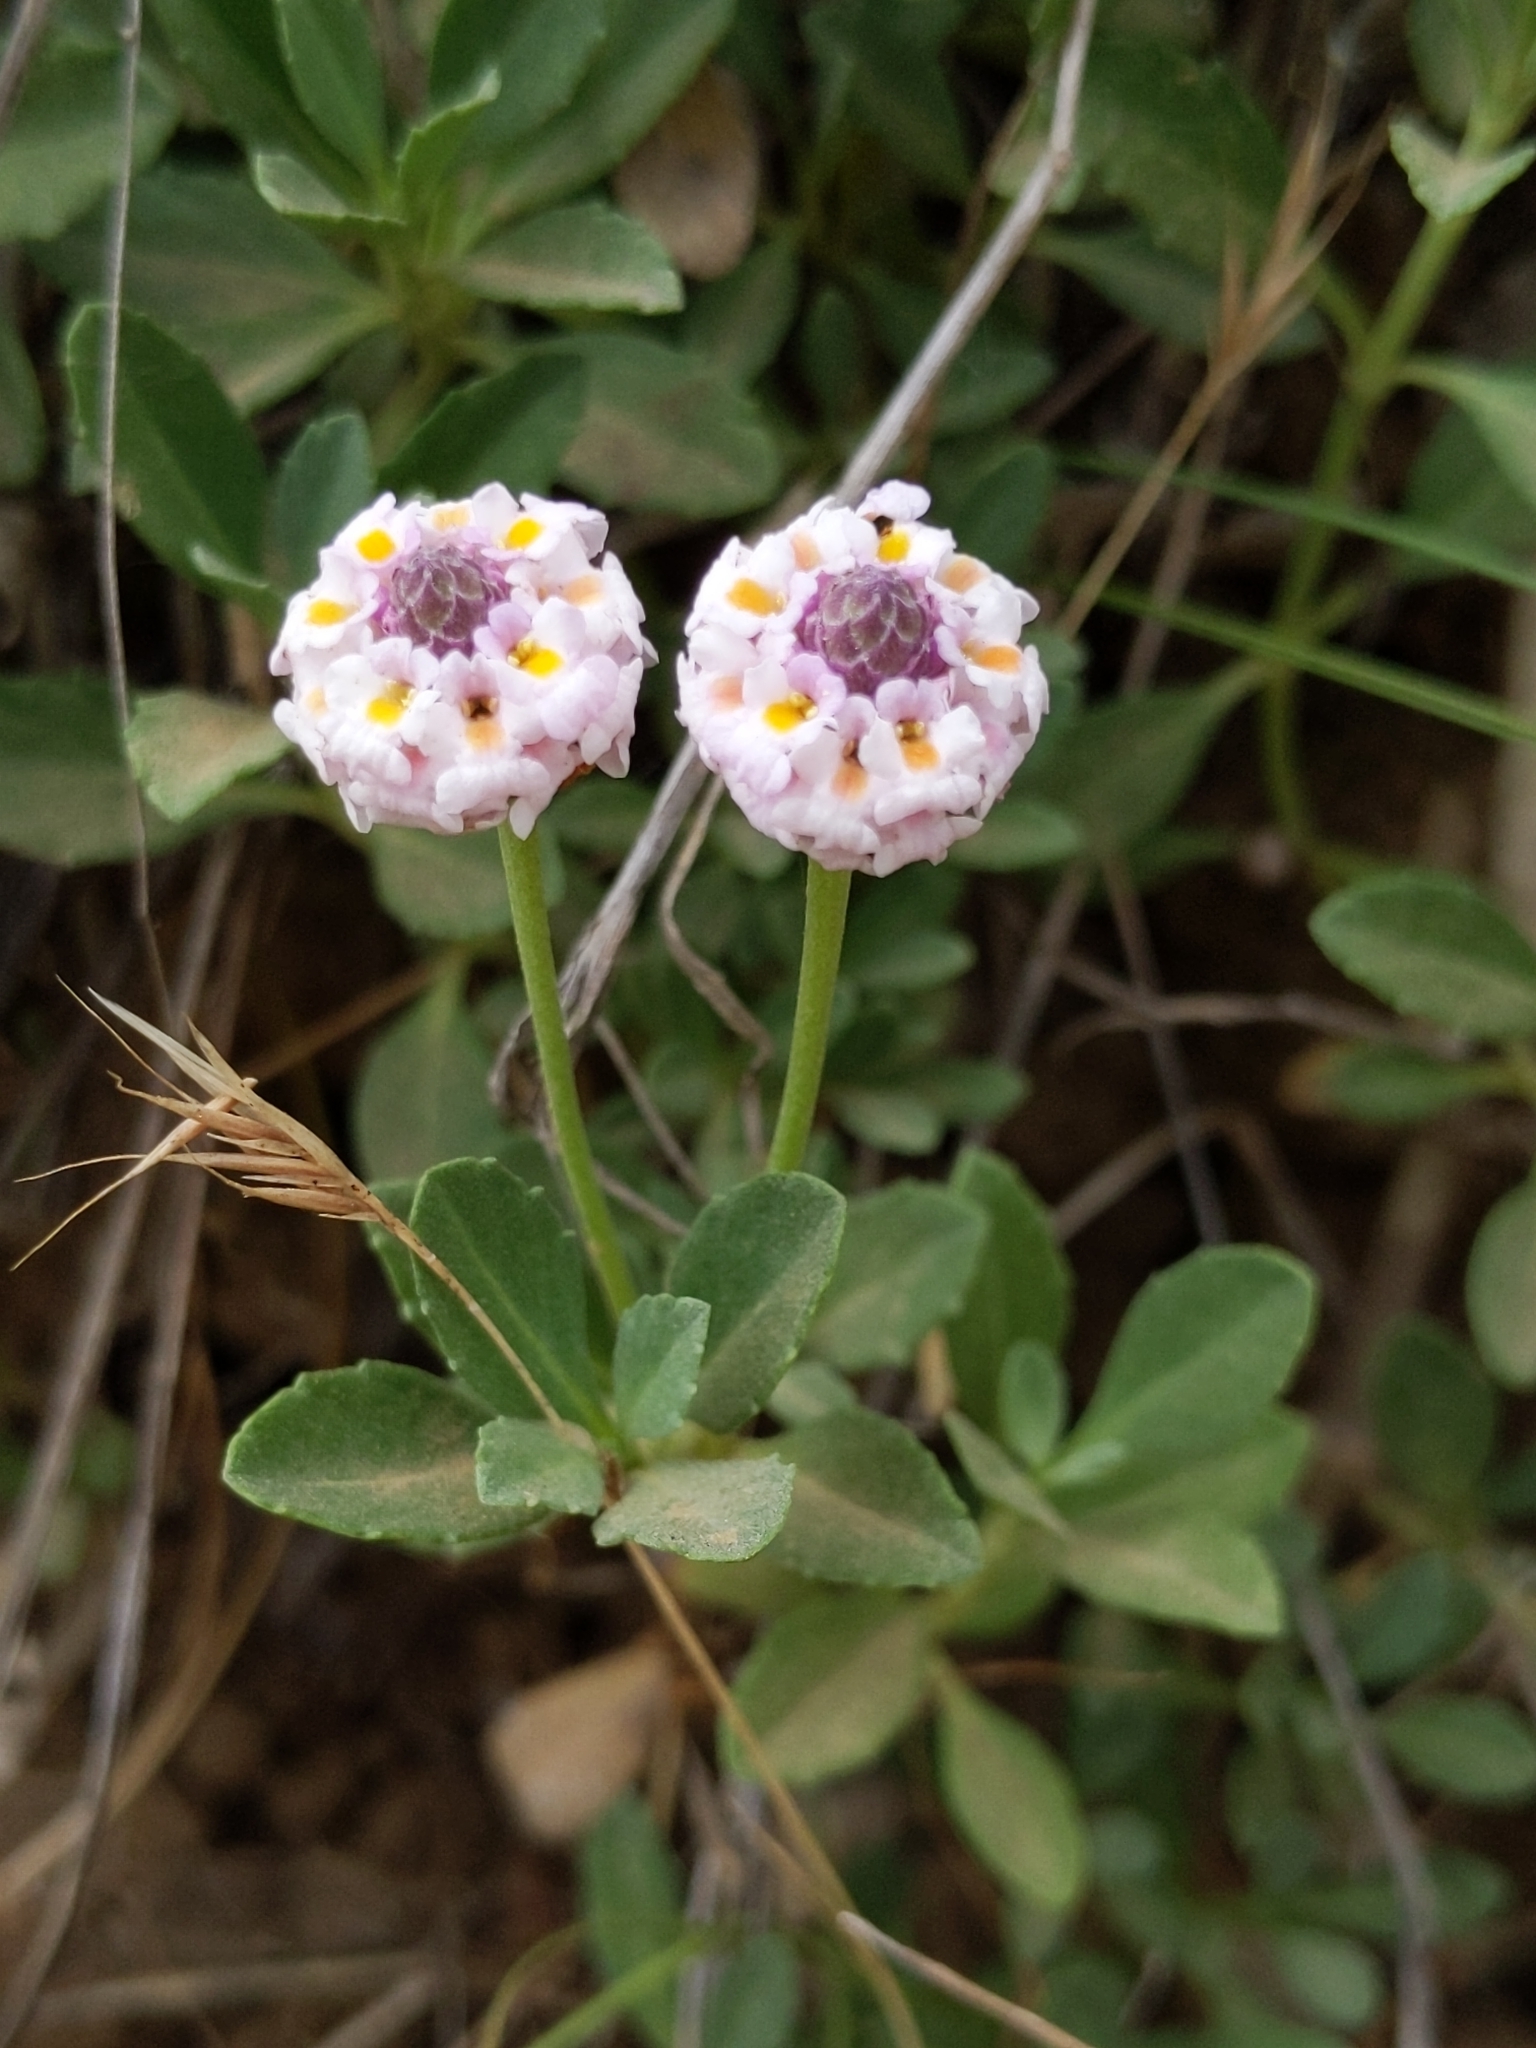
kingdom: Plantae
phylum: Tracheophyta
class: Magnoliopsida
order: Lamiales
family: Verbenaceae
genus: Phyla
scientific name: Phyla nodiflora
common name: Frogfruit
